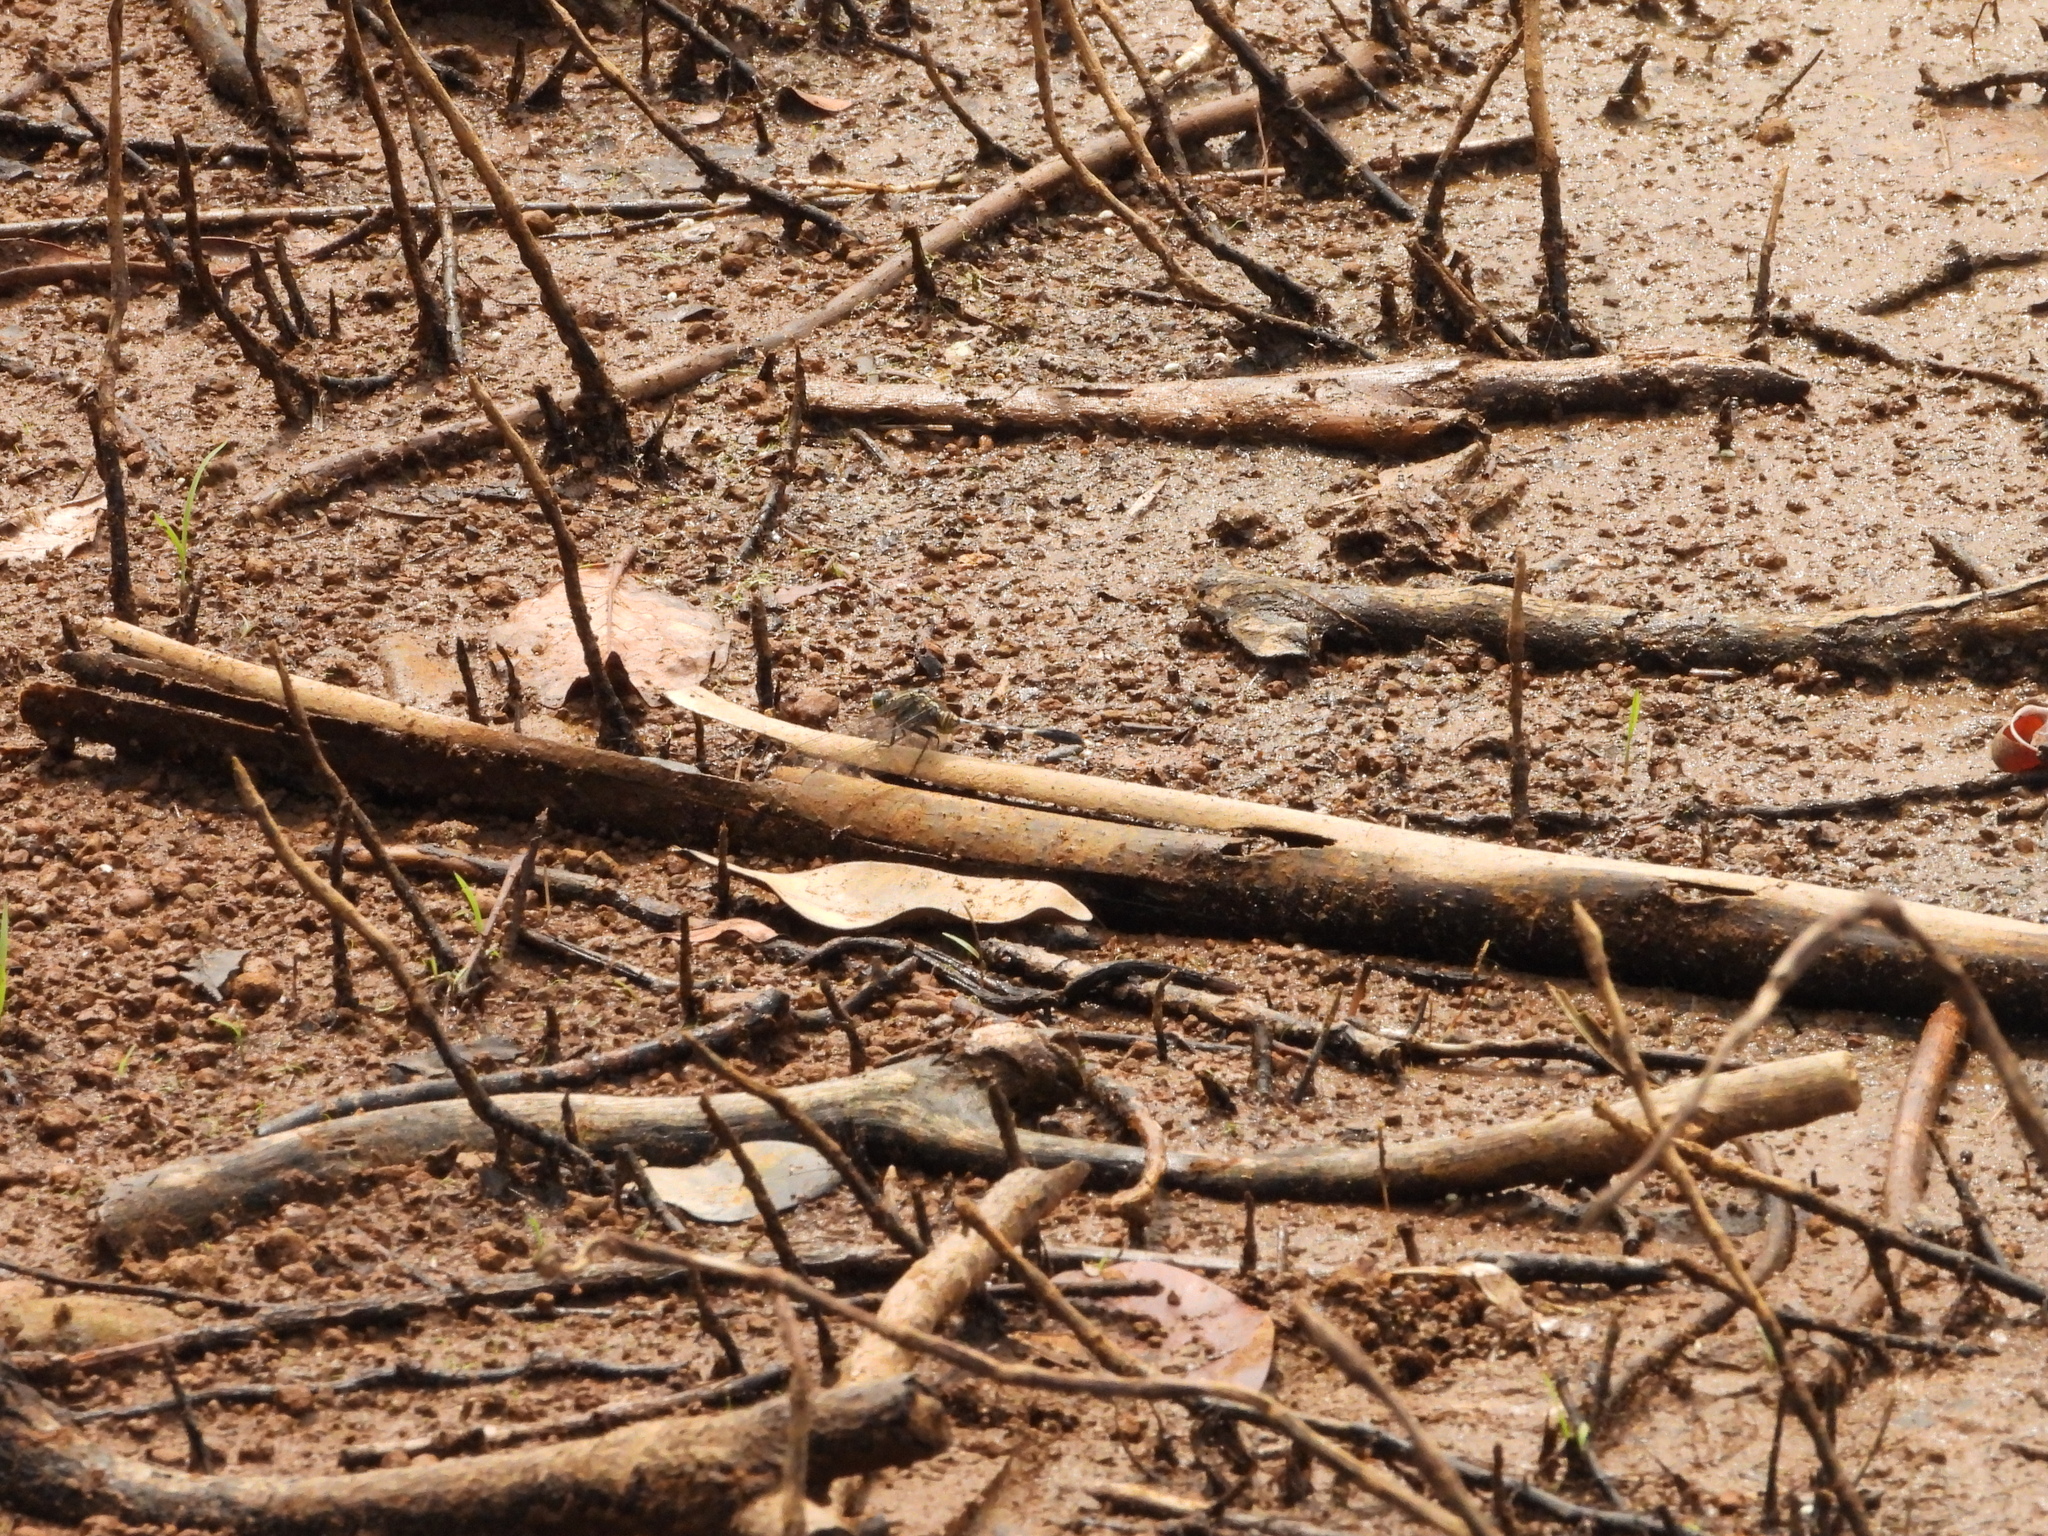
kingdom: Animalia
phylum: Arthropoda
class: Insecta
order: Odonata
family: Libellulidae
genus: Orthetrum
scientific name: Orthetrum sabina
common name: Slender skimmer
